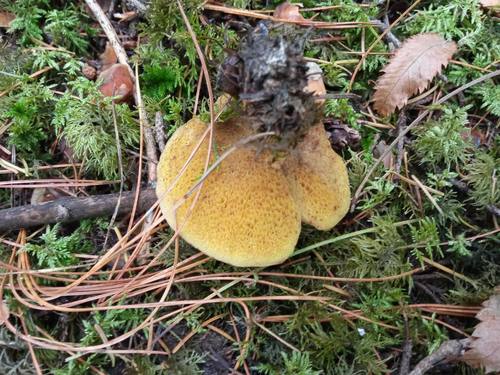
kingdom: Fungi
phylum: Basidiomycota
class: Agaricomycetes
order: Boletales
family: Suillaceae
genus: Suillus
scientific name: Suillus
